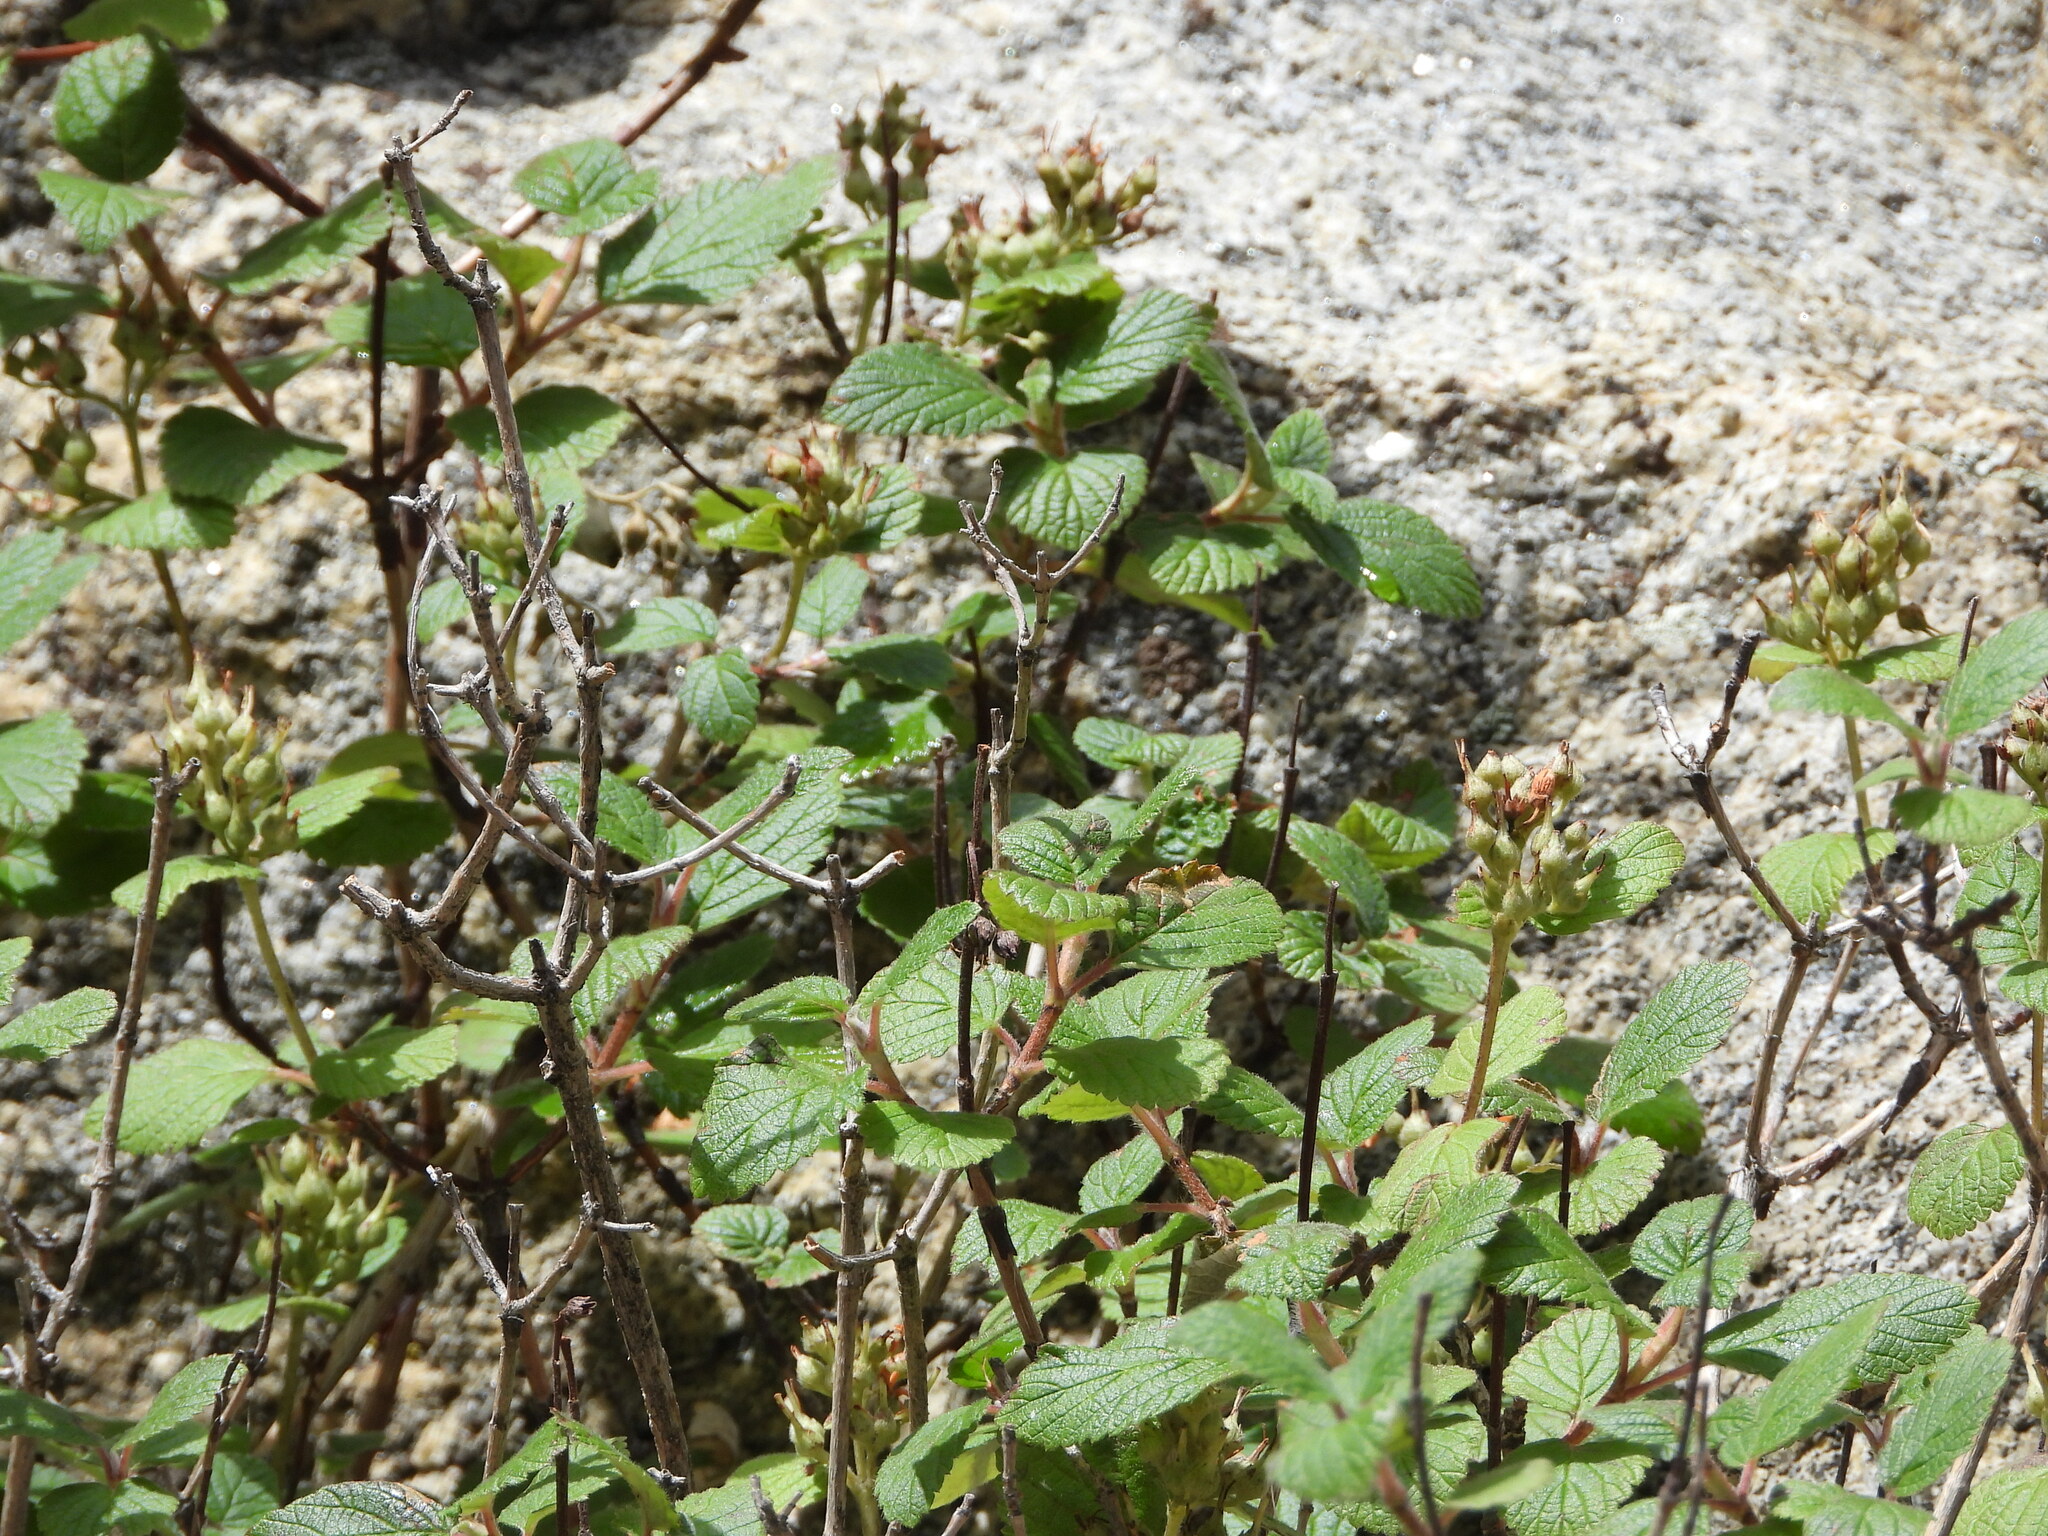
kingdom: Plantae
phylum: Tracheophyta
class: Magnoliopsida
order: Cornales
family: Hydrangeaceae
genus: Jamesia
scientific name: Jamesia americana
